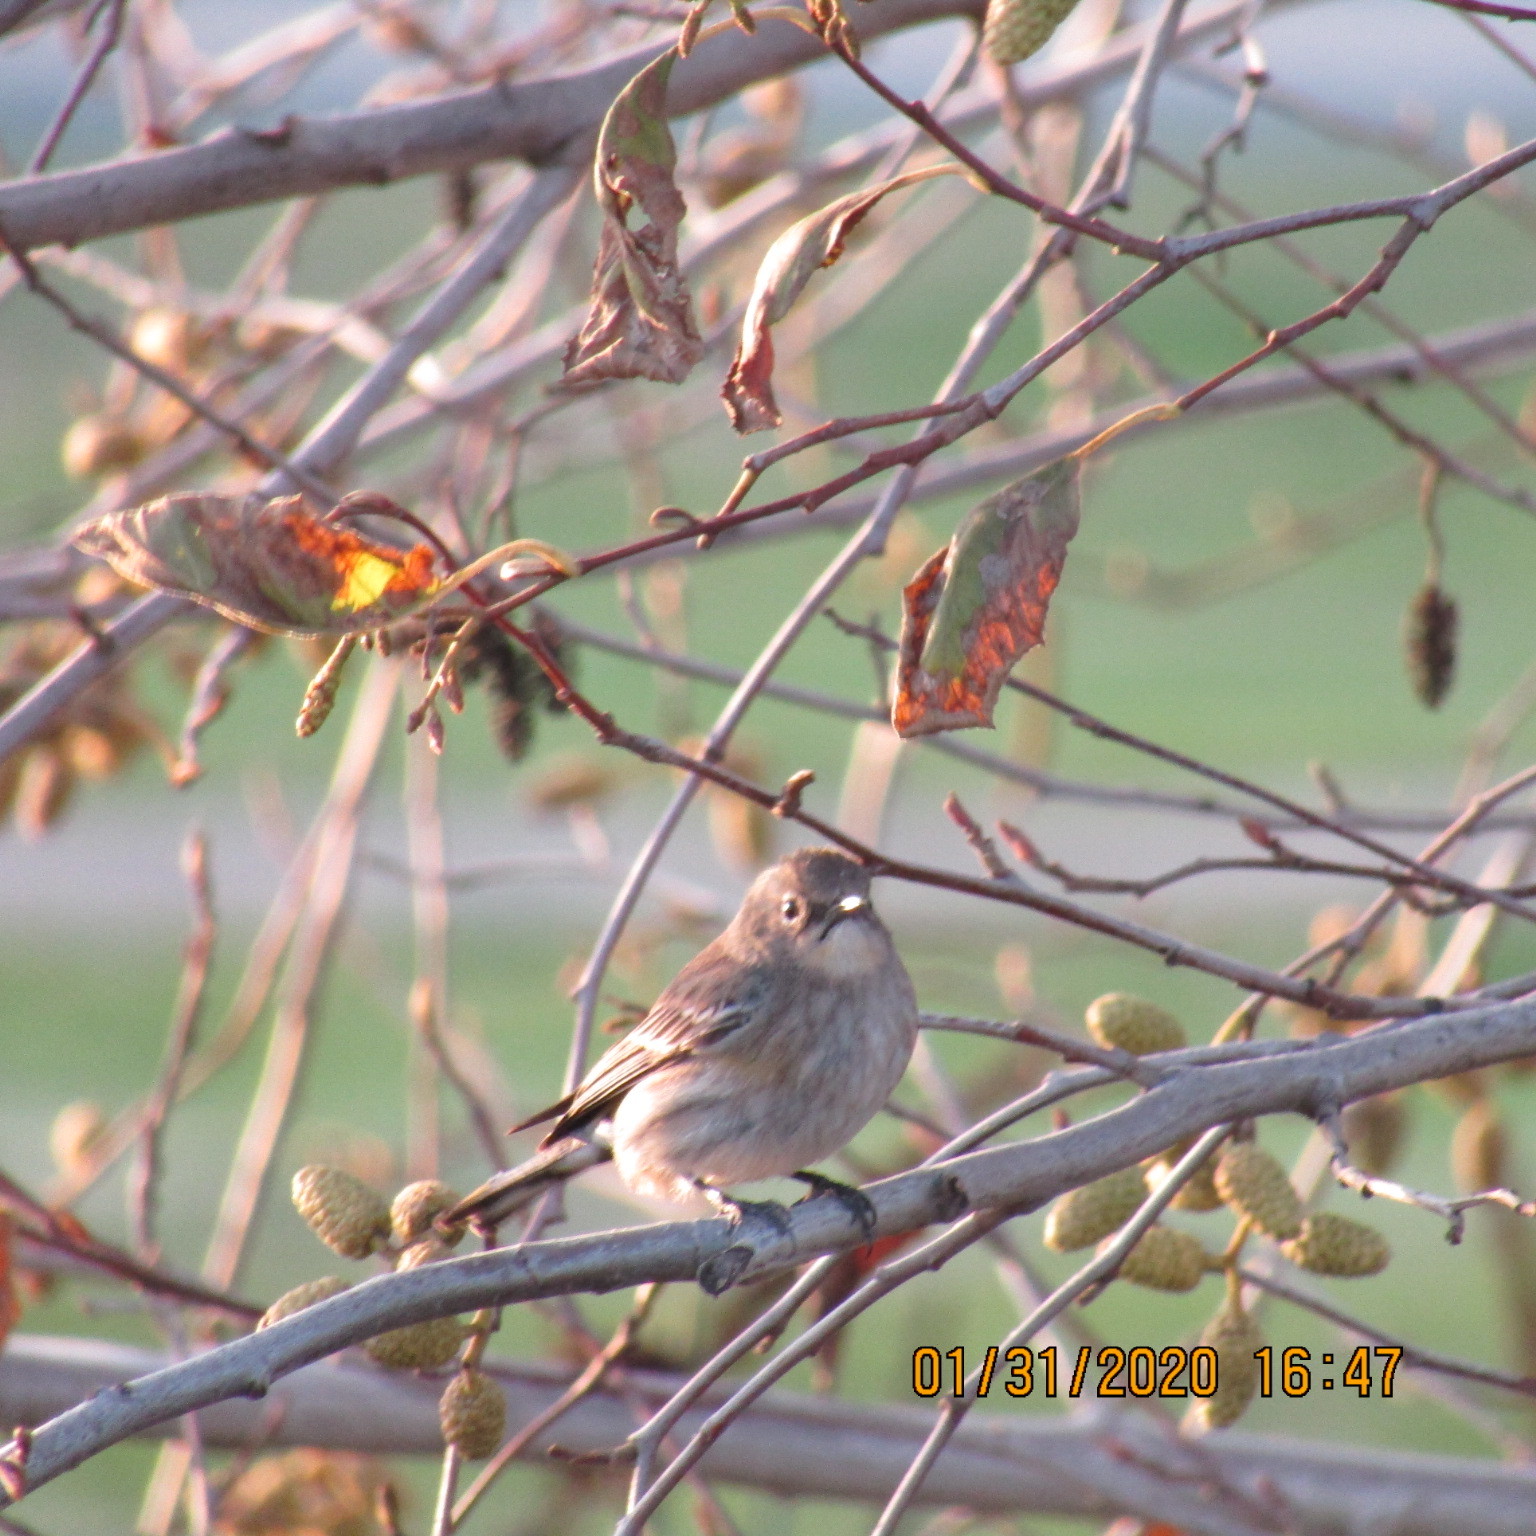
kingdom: Animalia
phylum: Chordata
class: Aves
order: Passeriformes
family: Parulidae
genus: Setophaga
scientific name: Setophaga coronata
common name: Myrtle warbler
